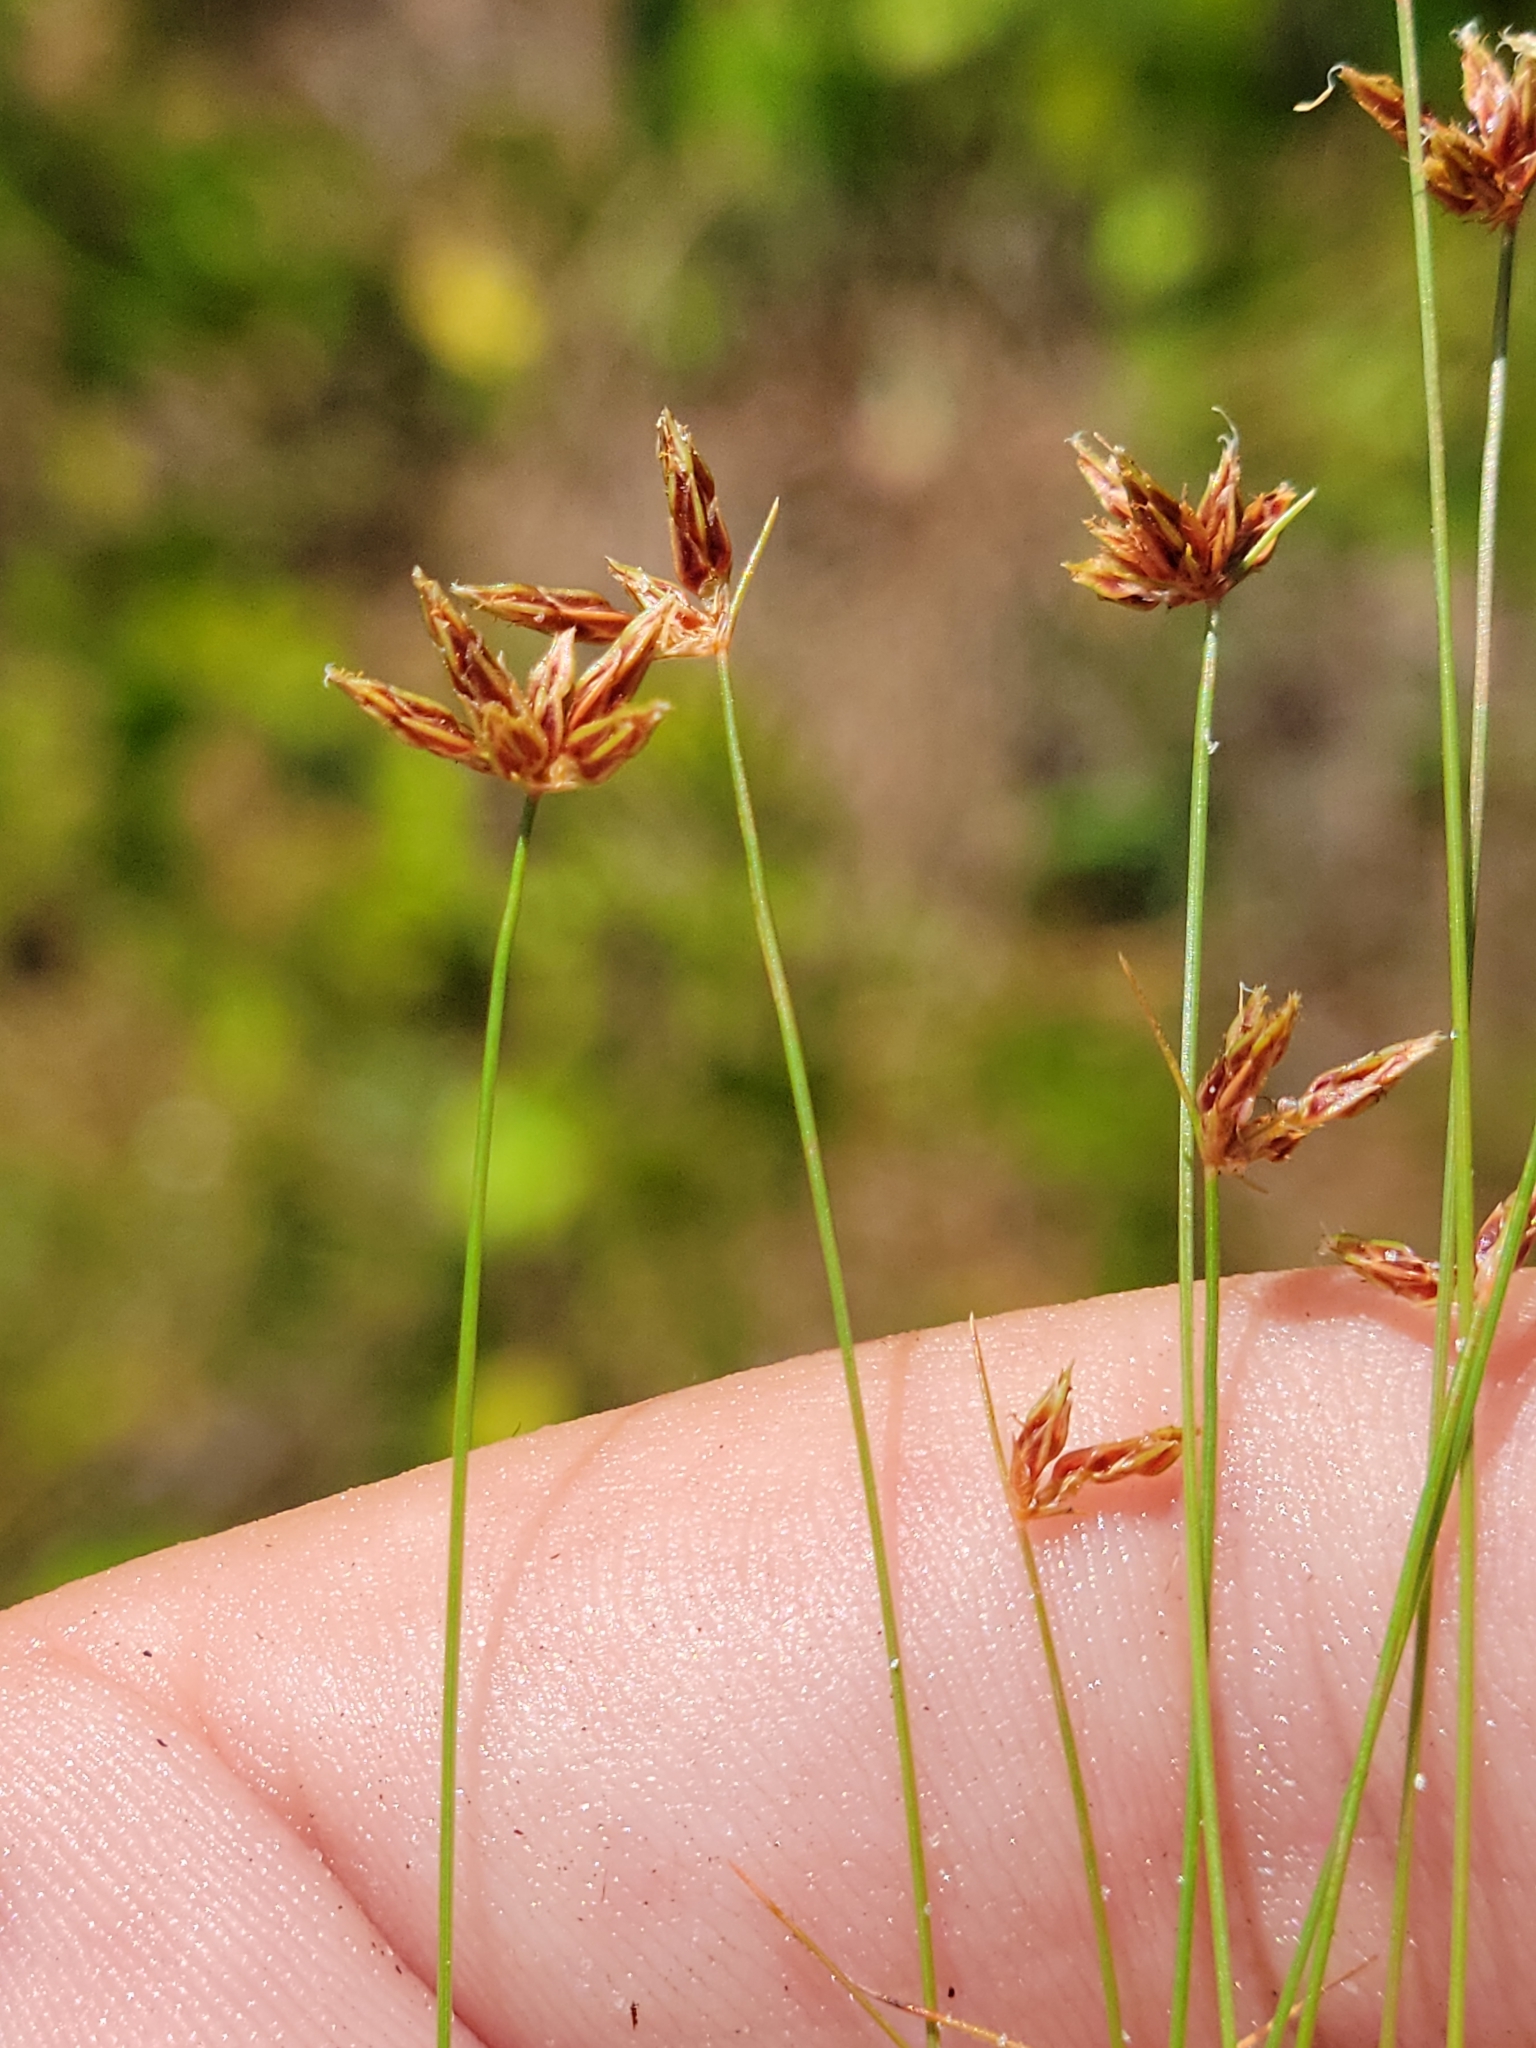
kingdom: Plantae
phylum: Tracheophyta
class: Liliopsida
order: Poales
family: Cyperaceae
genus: Bulbostylis
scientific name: Bulbostylis barbata
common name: Watergrass
